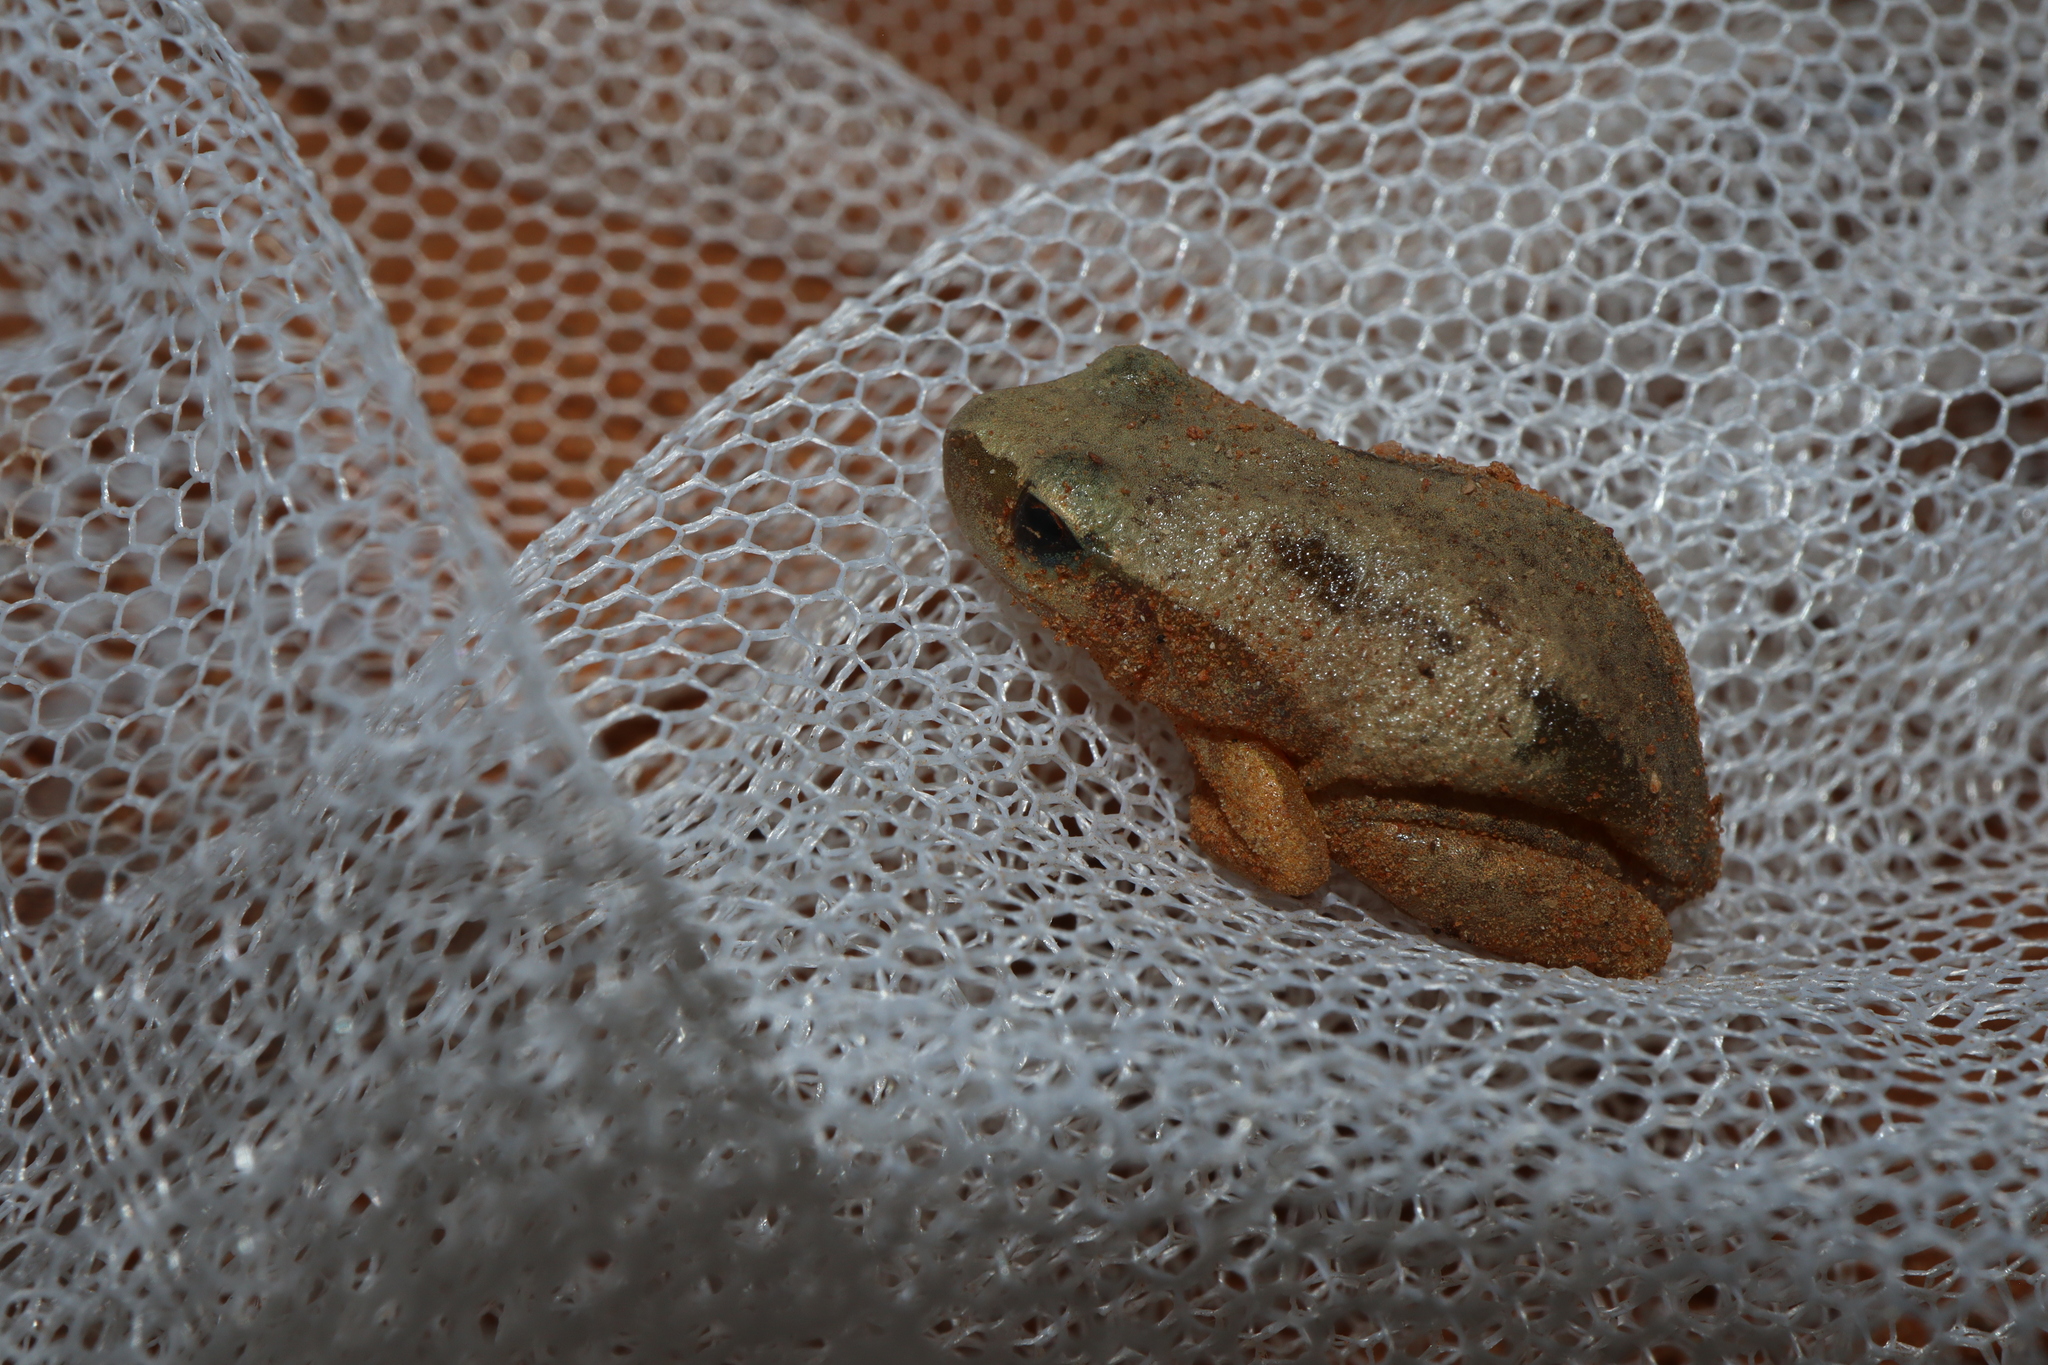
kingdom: Animalia
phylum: Chordata
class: Amphibia
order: Anura
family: Pelodryadidae
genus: Litoria
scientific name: Litoria rubella
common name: Desert tree frog
